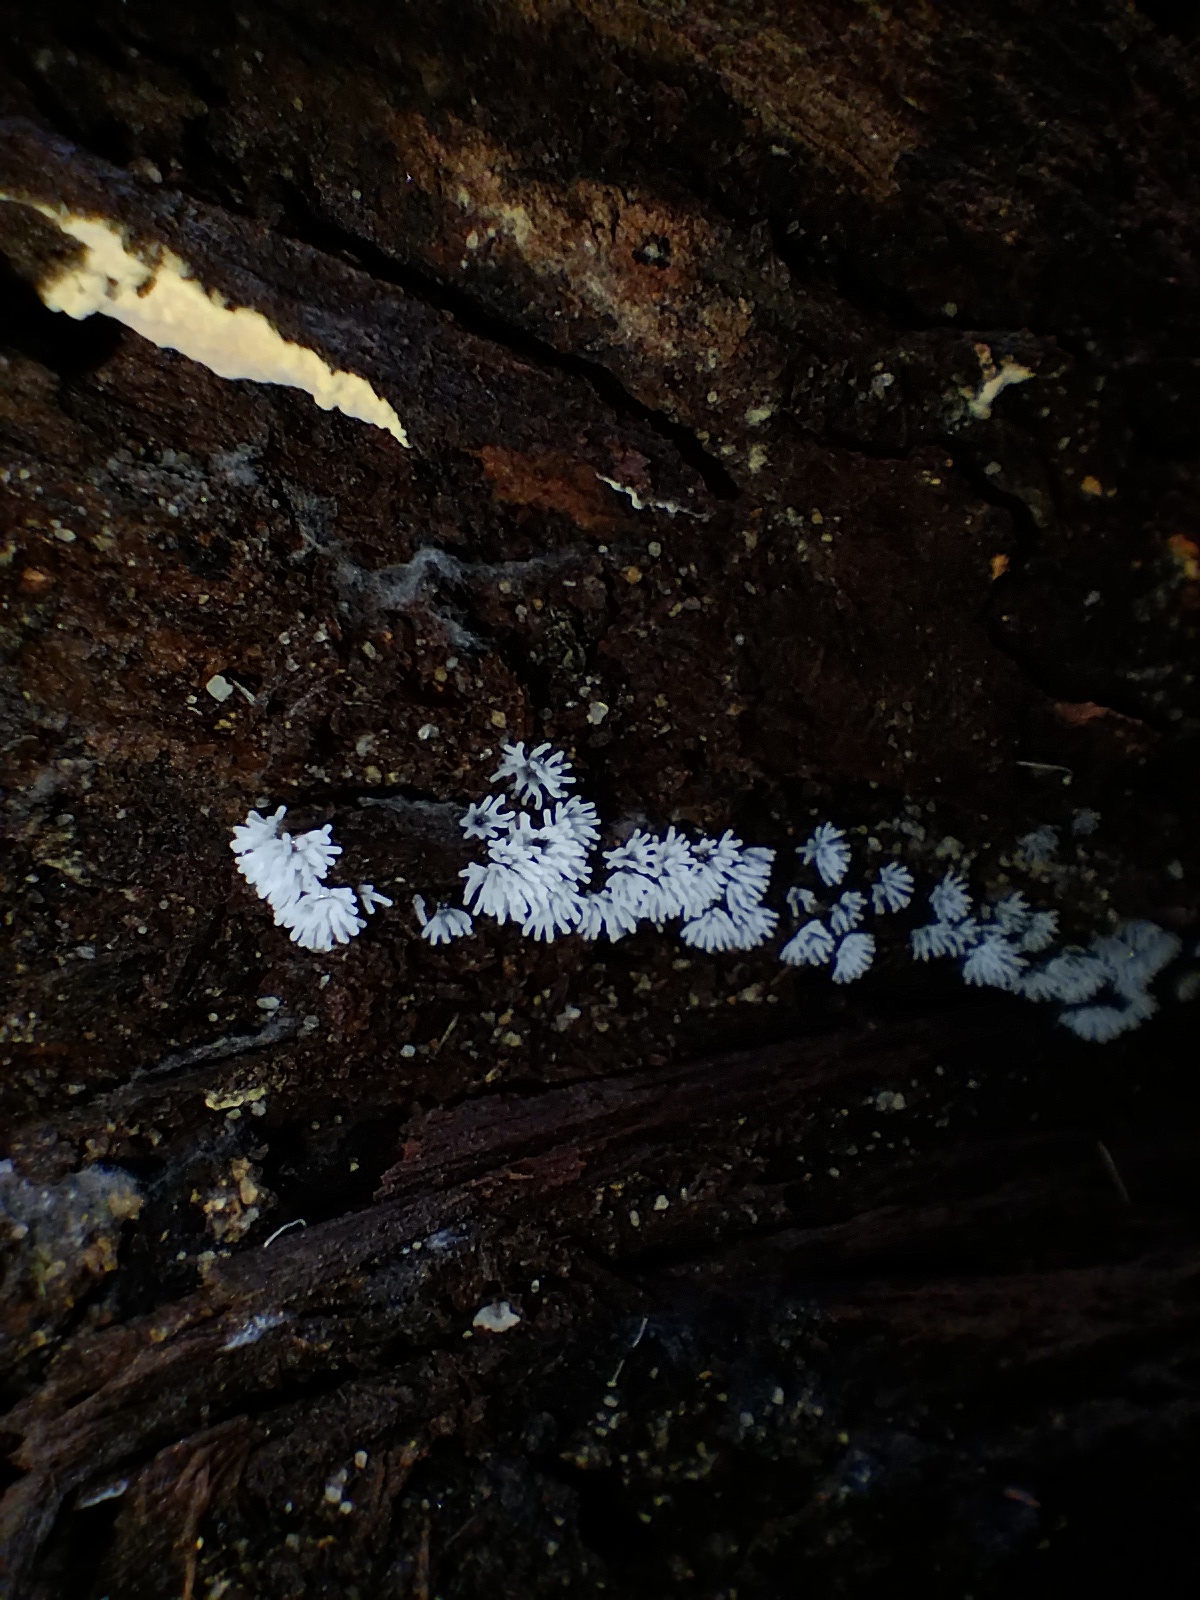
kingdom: Protozoa
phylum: Mycetozoa
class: Protosteliomycetes
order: Ceratiomyxales
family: Ceratiomyxaceae
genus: Ceratiomyxa
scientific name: Ceratiomyxa fruticulosa
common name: Honeycomb coral slime mold
